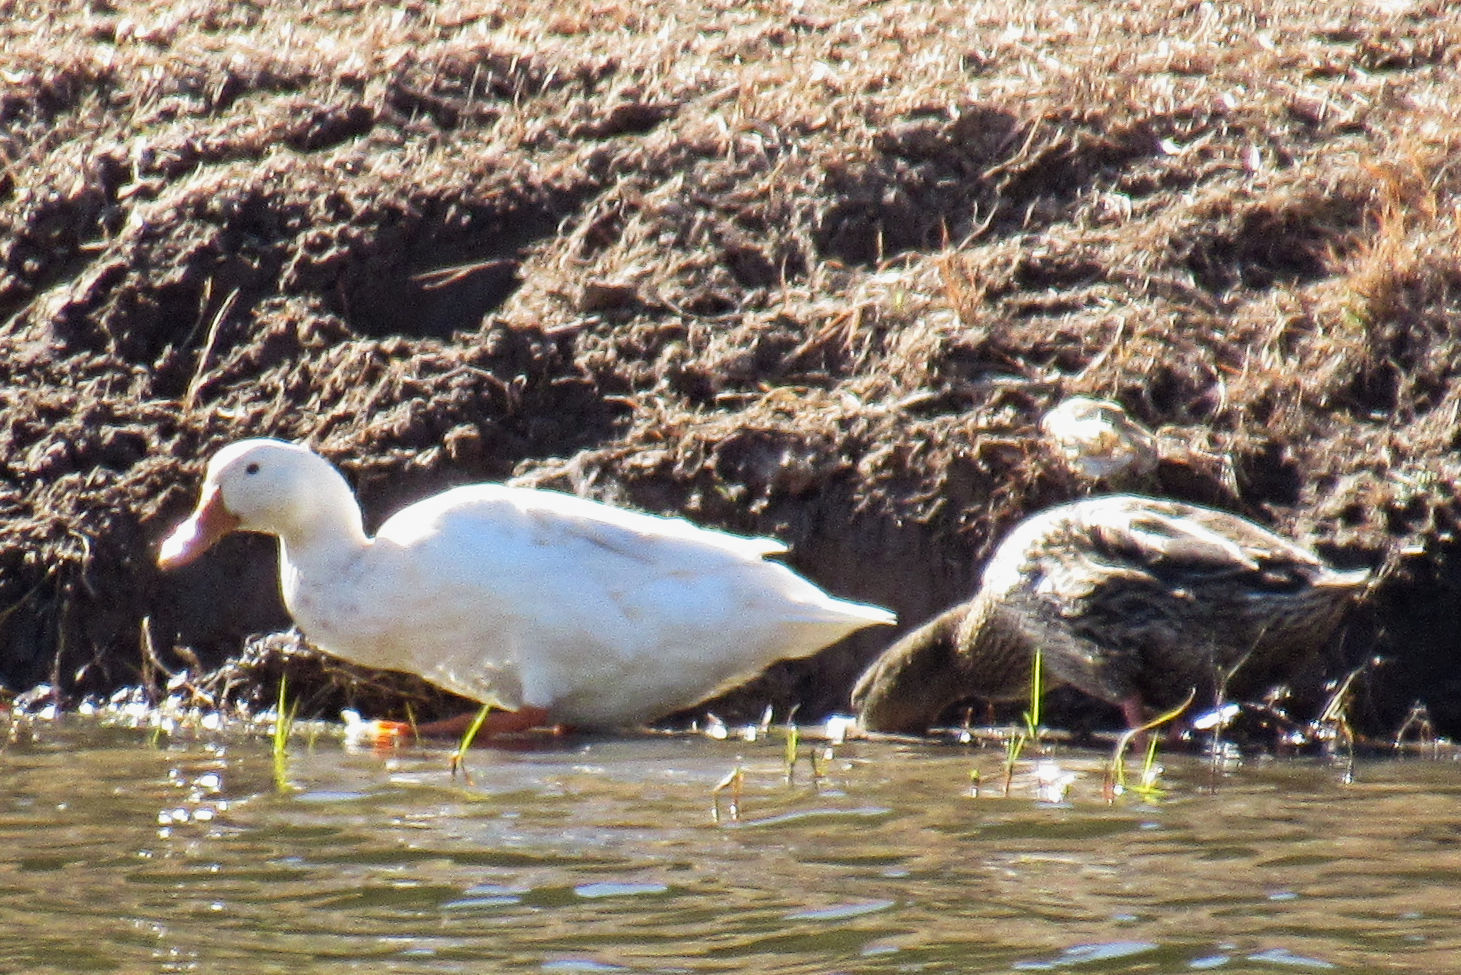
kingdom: Animalia
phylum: Chordata
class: Aves
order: Anseriformes
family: Anatidae
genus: Anas
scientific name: Anas platyrhynchos
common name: Mallard
